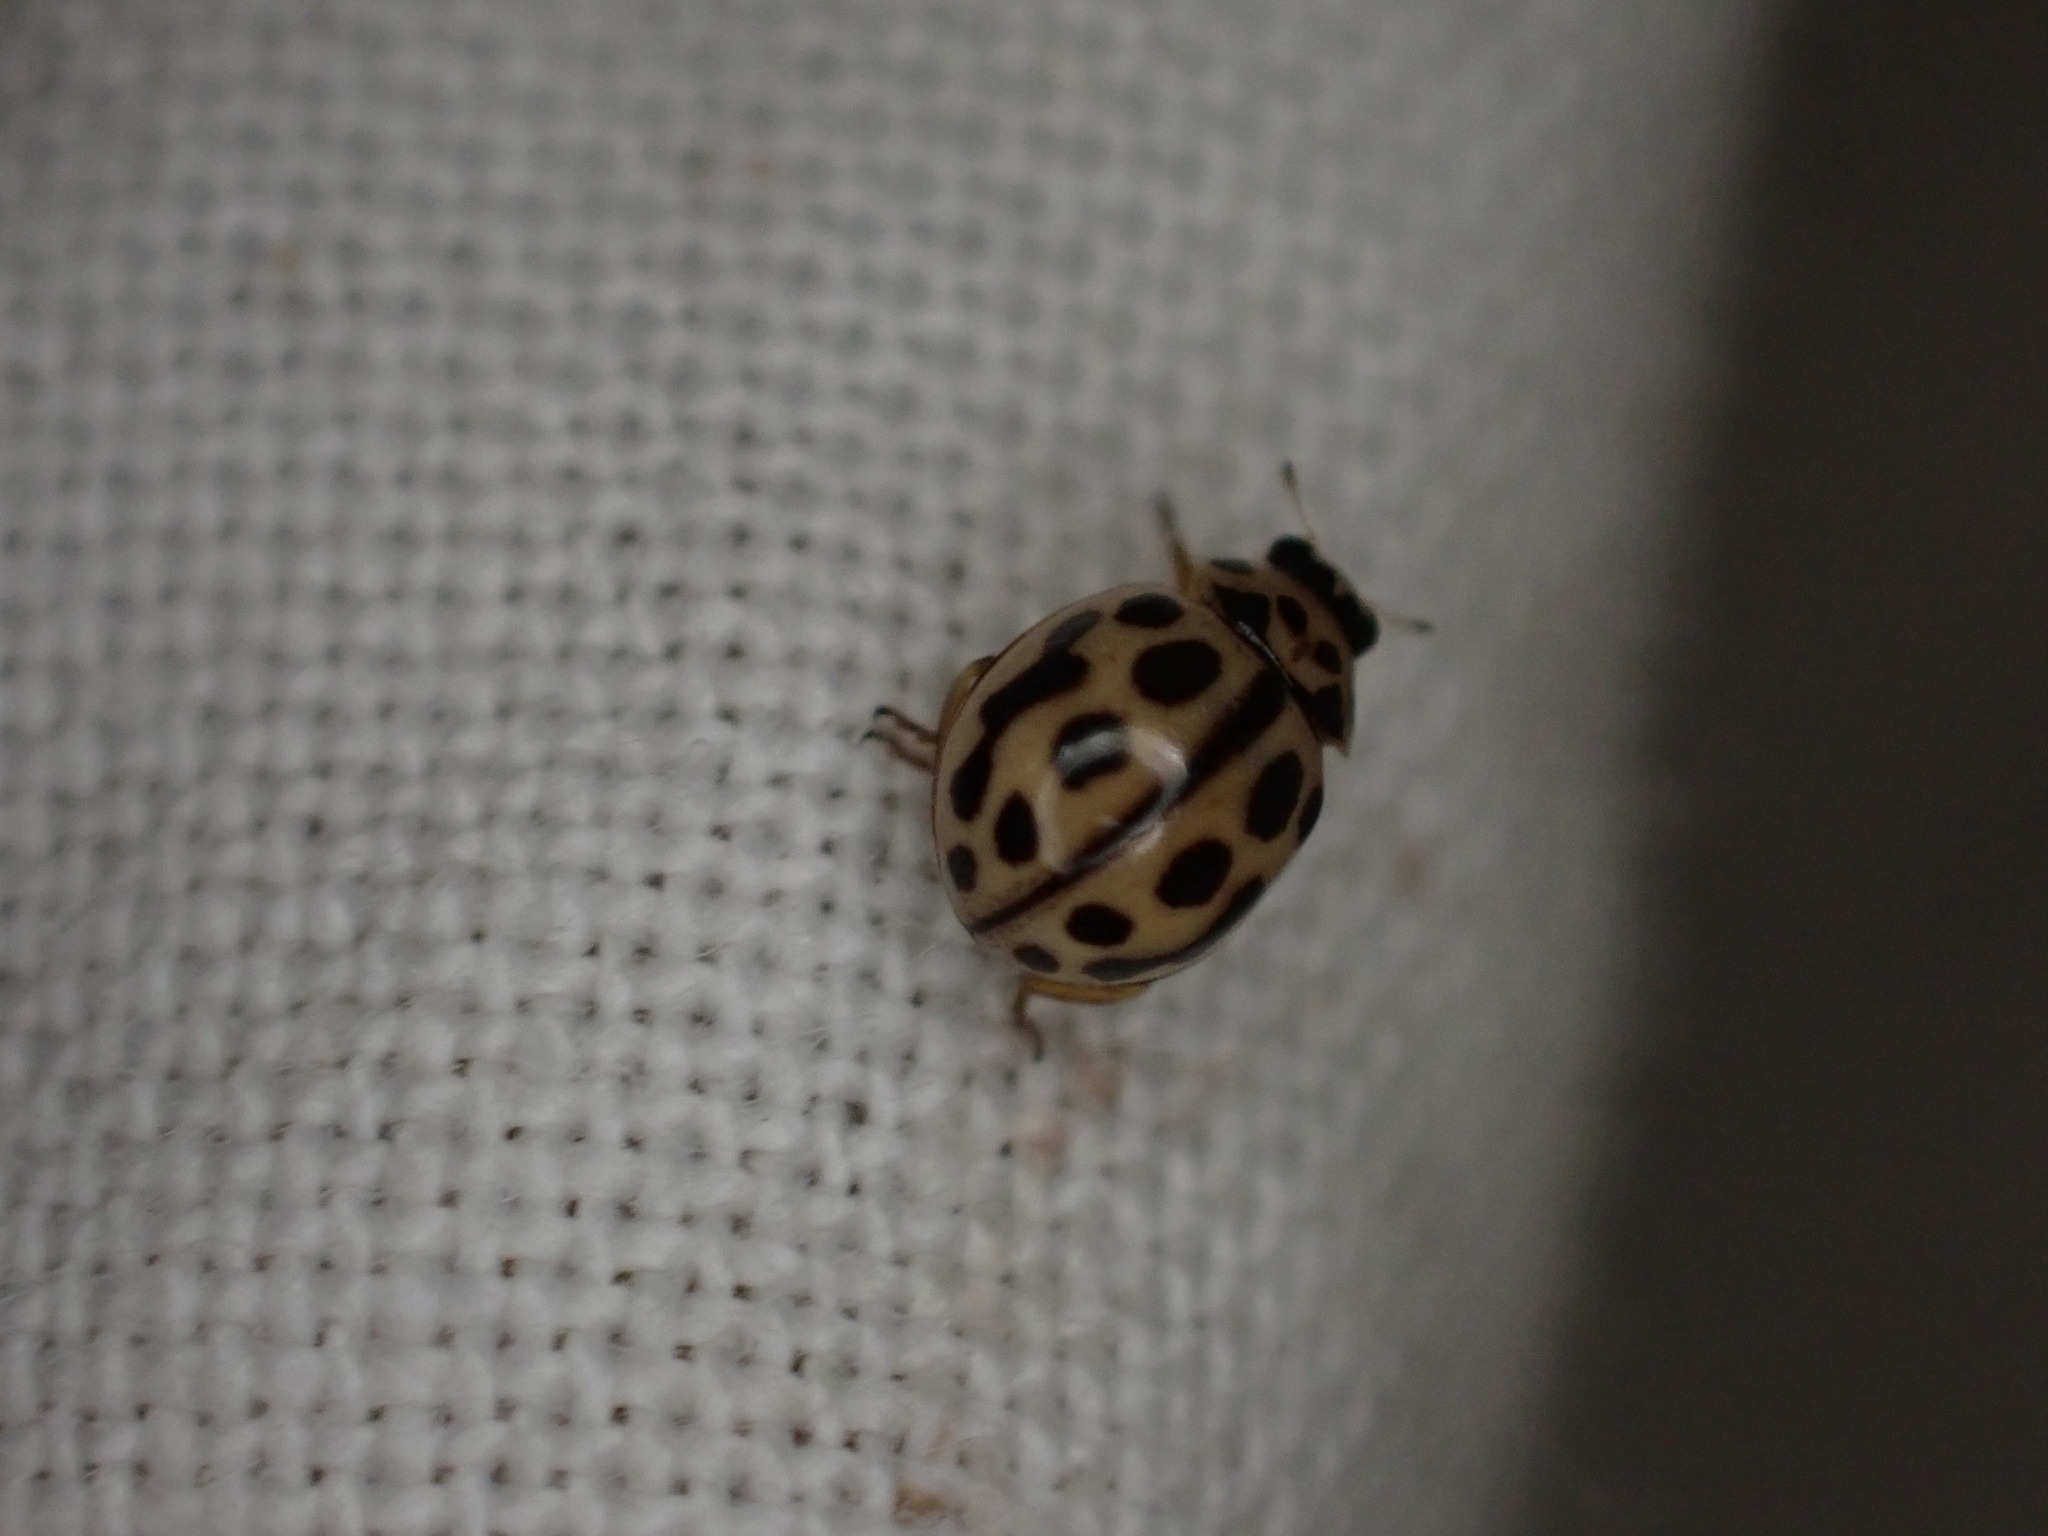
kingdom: Animalia
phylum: Arthropoda
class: Insecta
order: Coleoptera
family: Coccinellidae
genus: Tytthaspis
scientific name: Tytthaspis sedecimpunctata
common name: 16-spot ladybird
